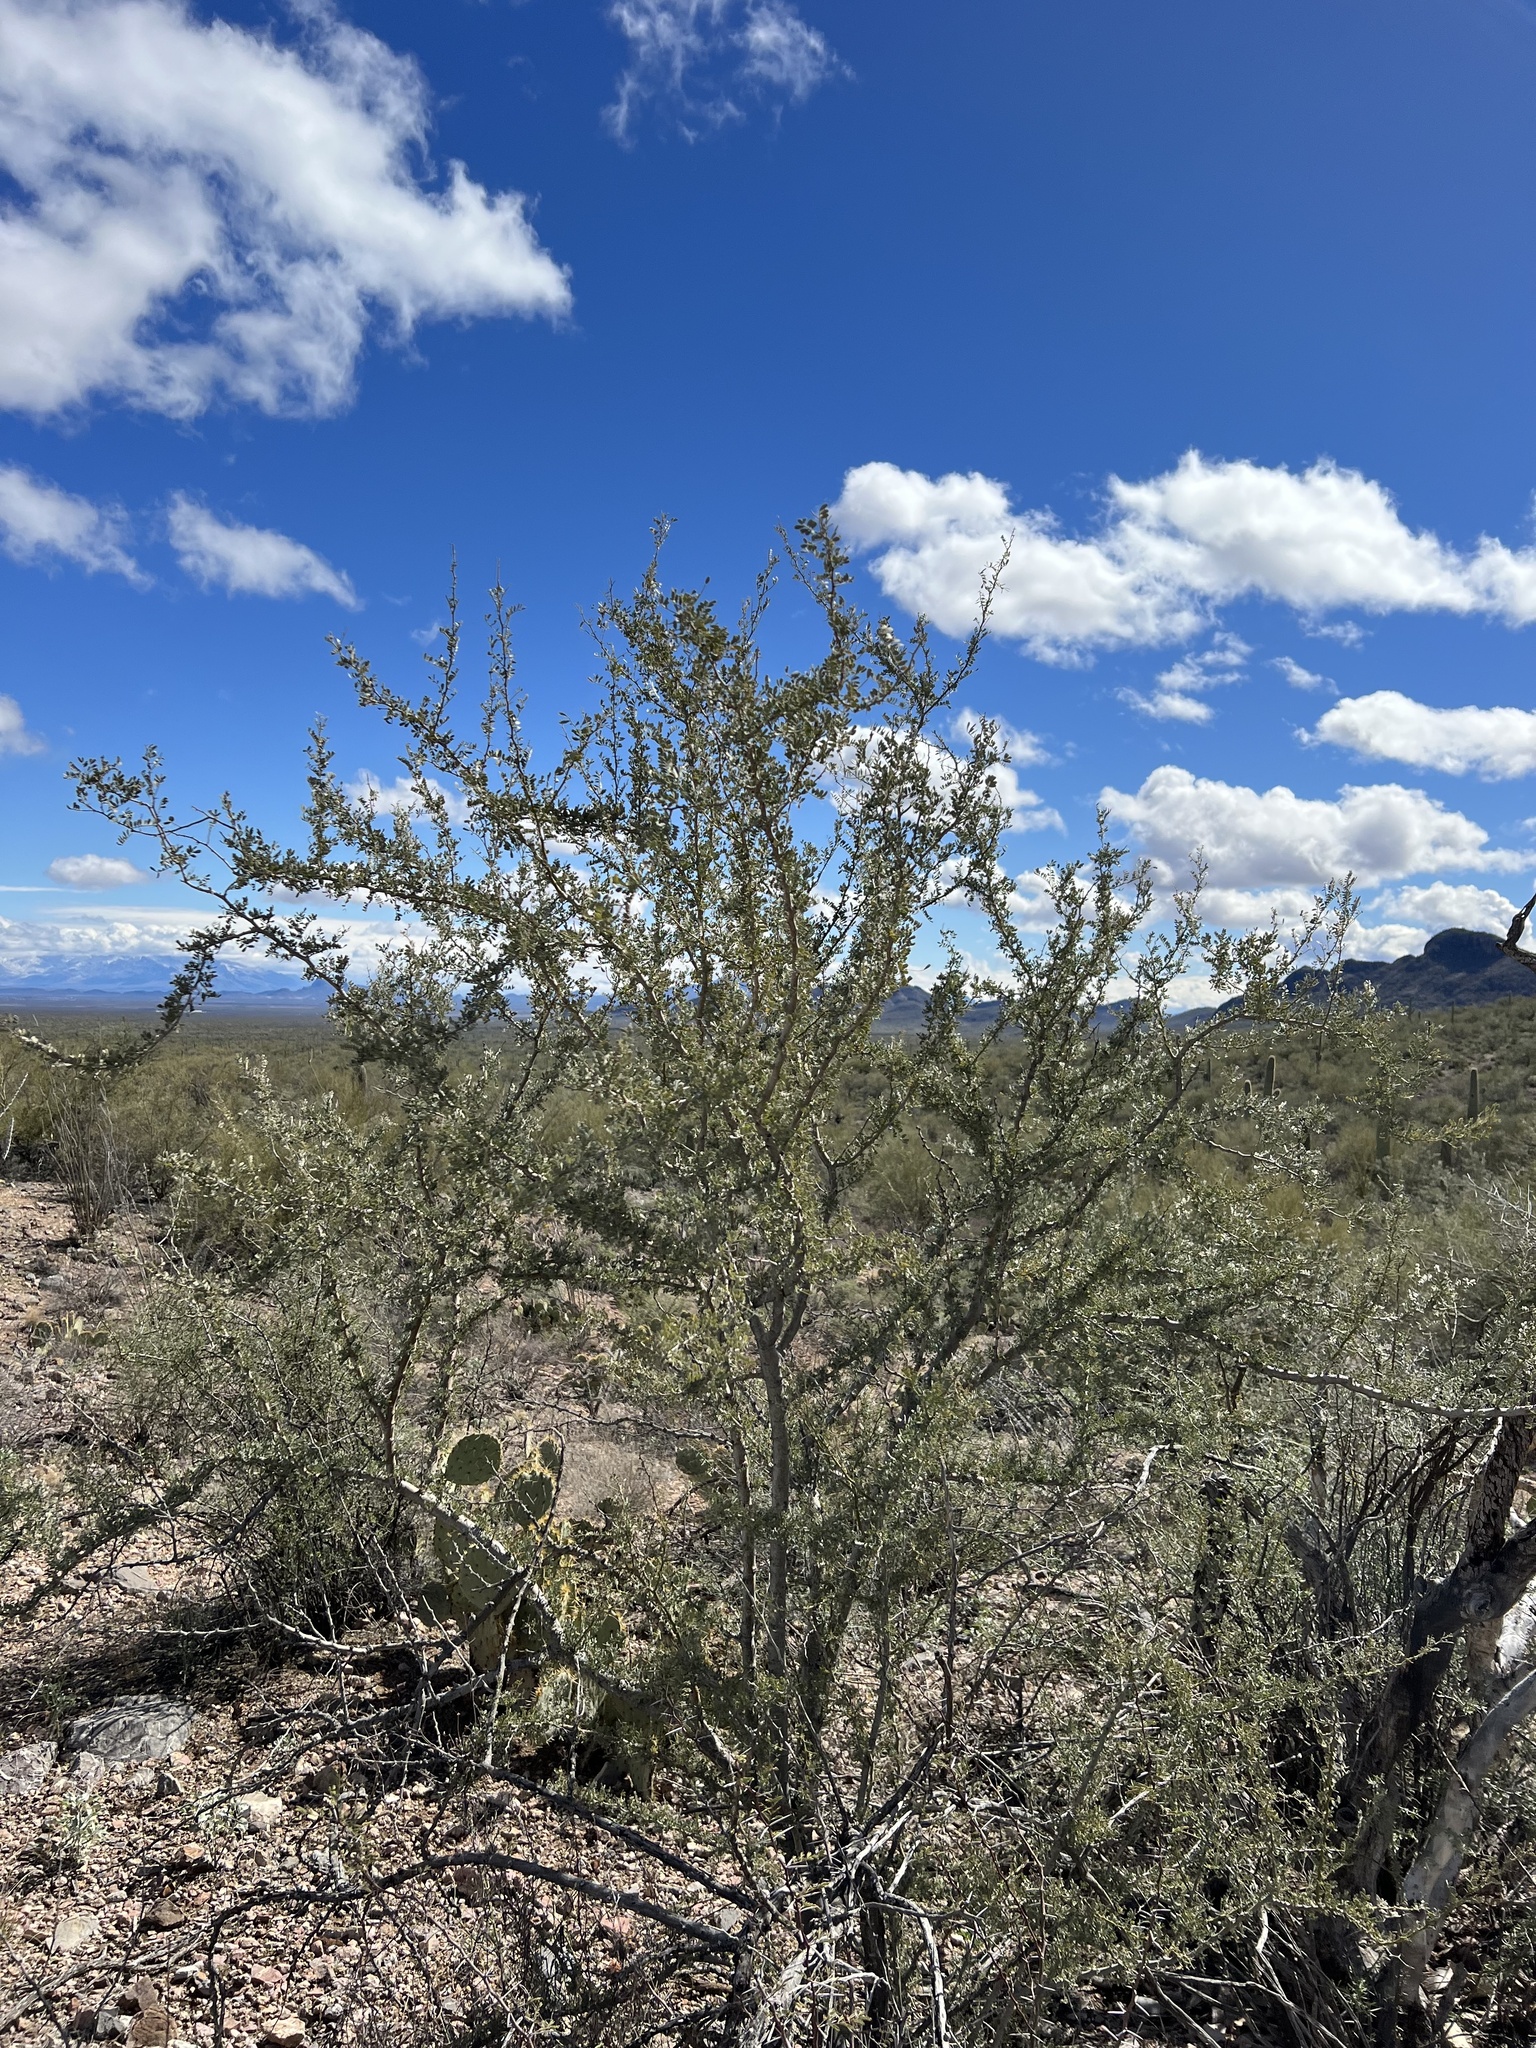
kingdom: Plantae
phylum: Tracheophyta
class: Magnoliopsida
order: Fabales
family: Fabaceae
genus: Olneya
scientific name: Olneya tesota
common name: Desert ironwood
